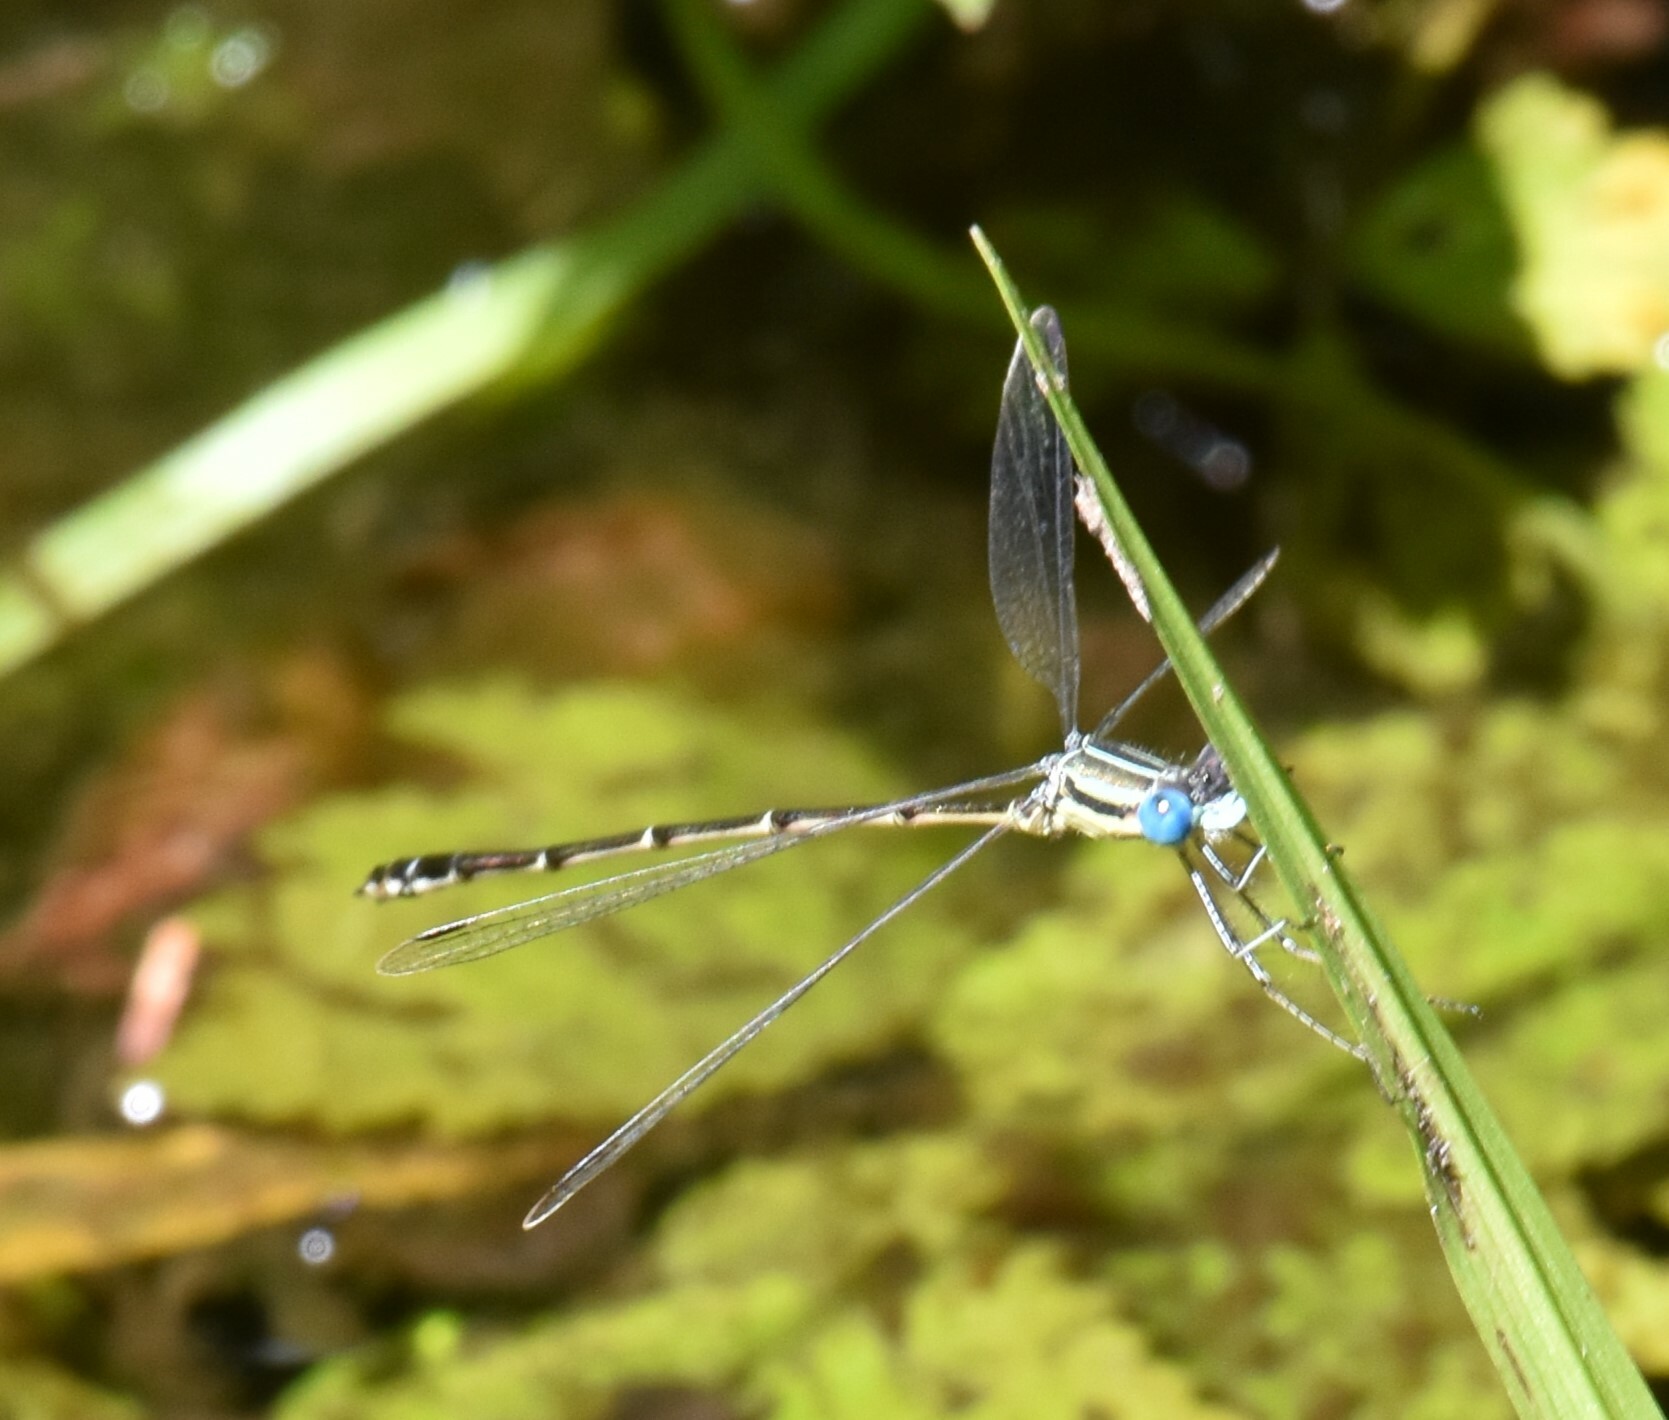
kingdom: Animalia
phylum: Arthropoda
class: Insecta
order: Odonata
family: Lestidae
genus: Lestes
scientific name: Lestes rectangularis
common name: Slender spreadwing
